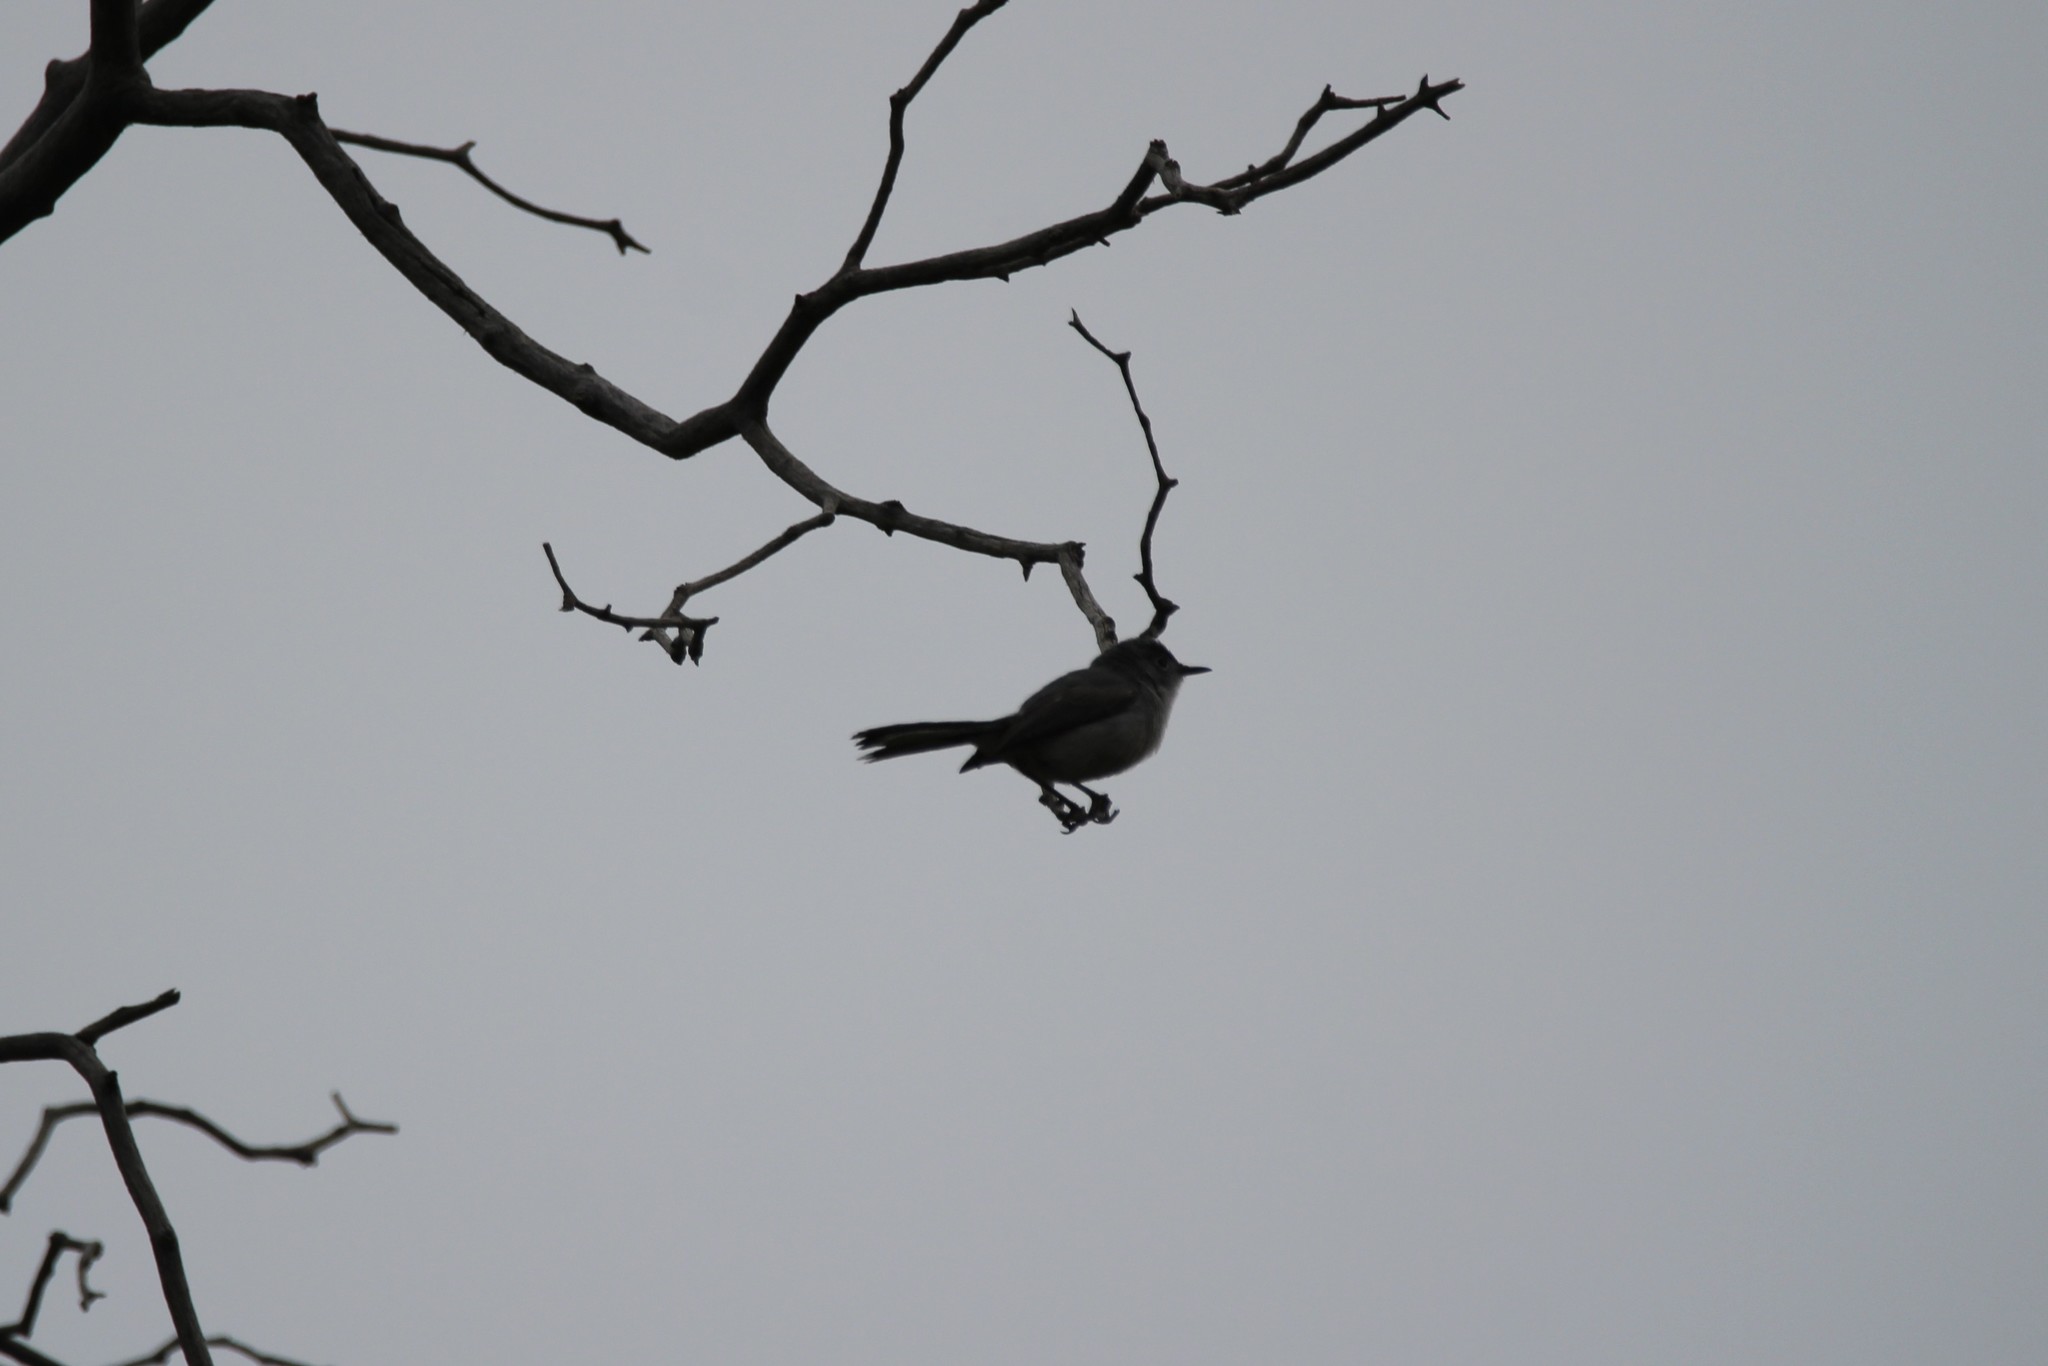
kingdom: Animalia
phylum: Chordata
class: Aves
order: Passeriformes
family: Polioptilidae
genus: Polioptila
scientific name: Polioptila caerulea
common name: Blue-gray gnatcatcher
